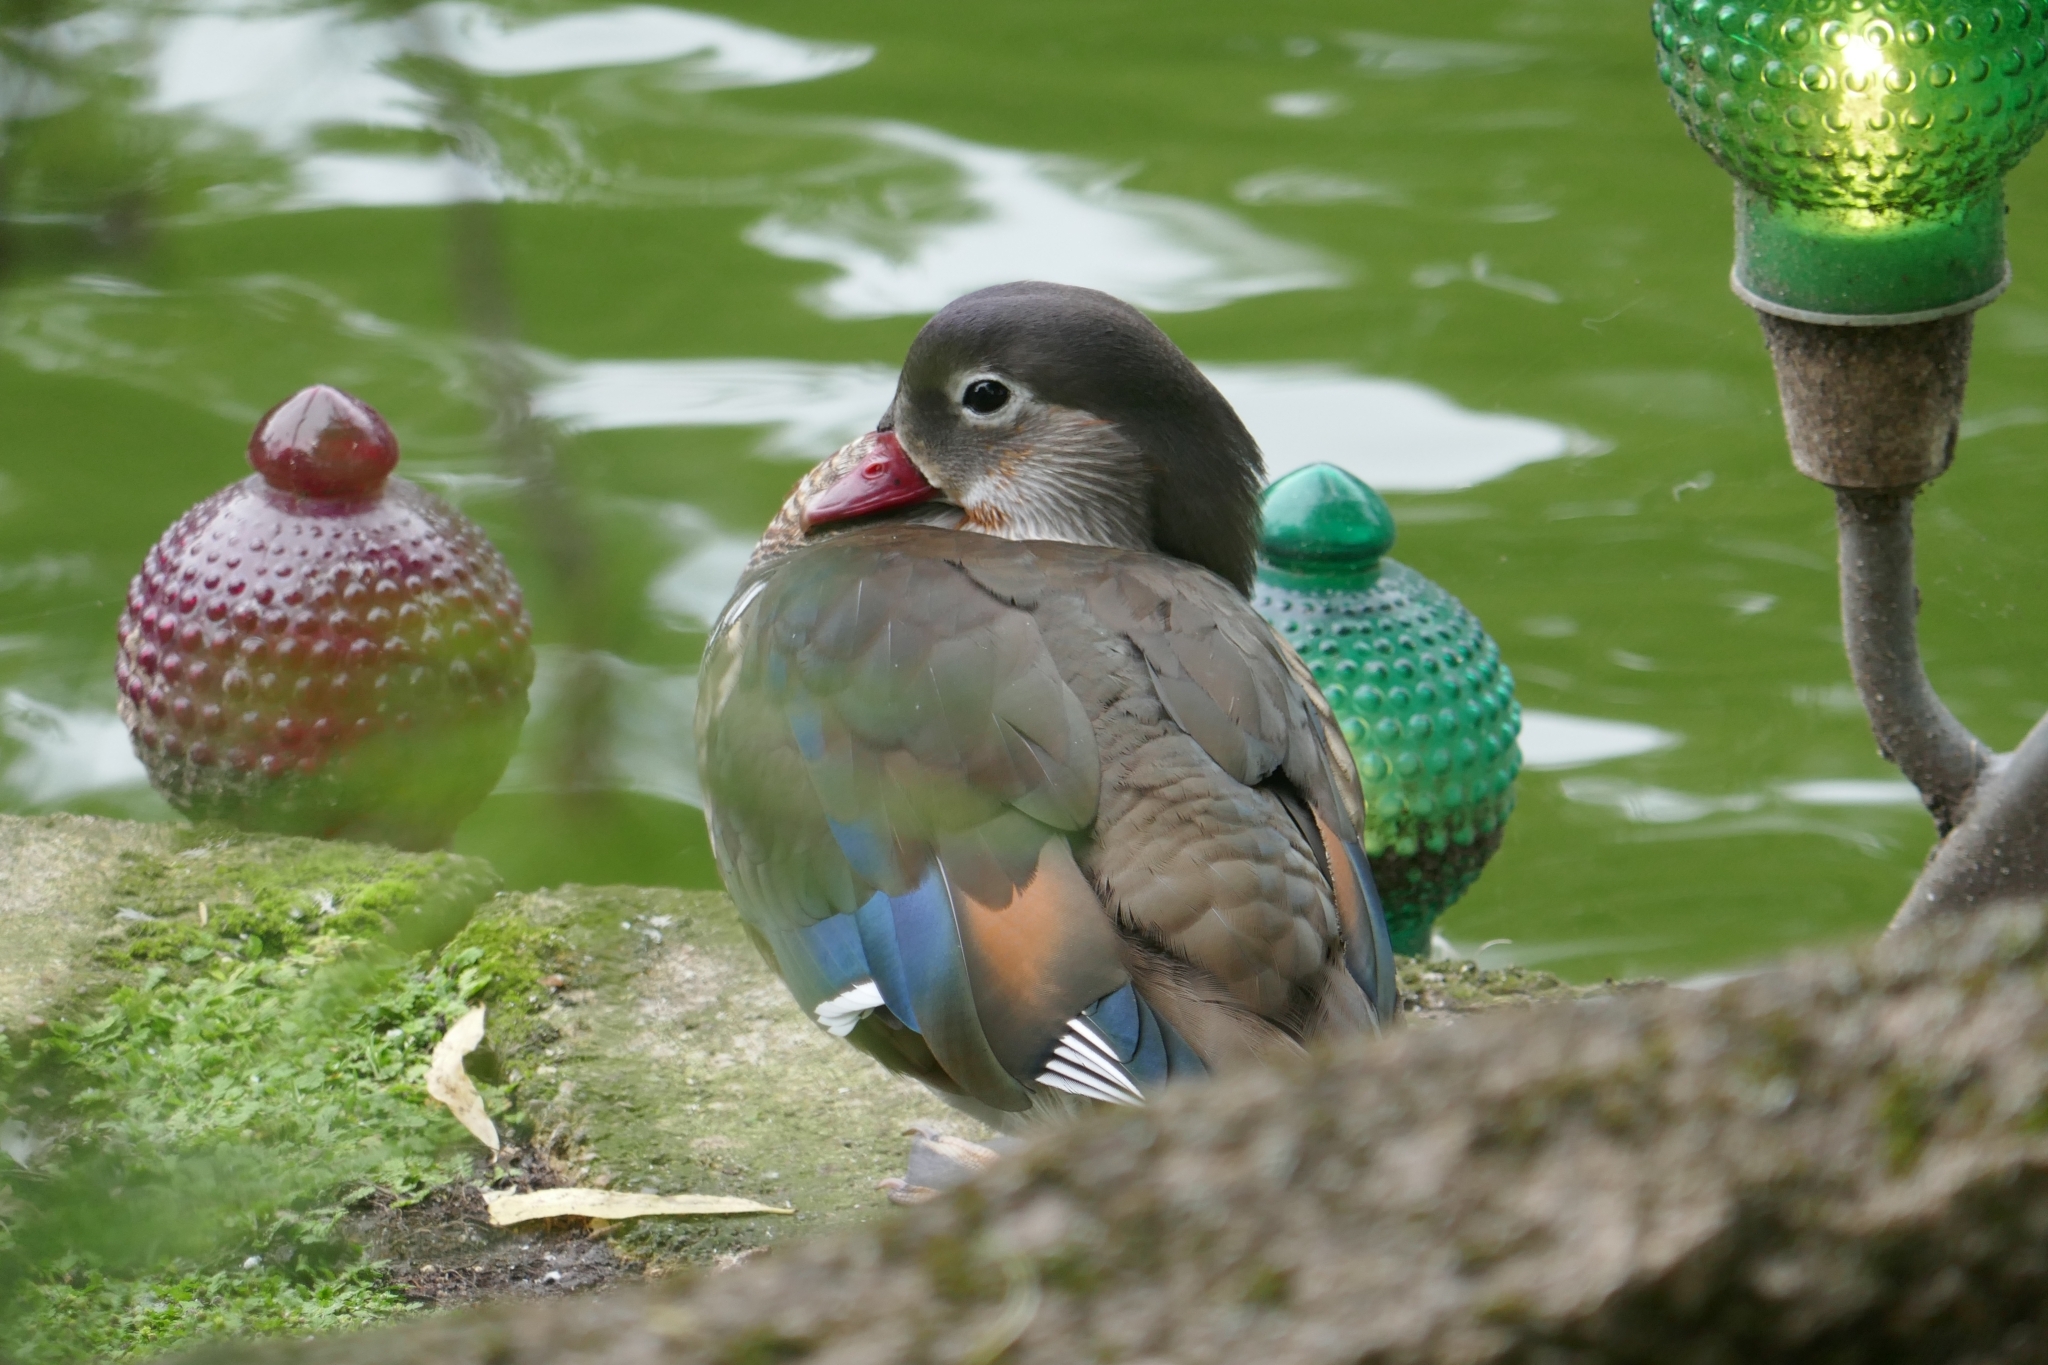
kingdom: Animalia
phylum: Chordata
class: Aves
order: Anseriformes
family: Anatidae
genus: Aix
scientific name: Aix galericulata
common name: Mandarin duck
